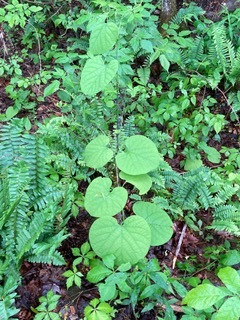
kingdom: Plantae
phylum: Tracheophyta
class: Magnoliopsida
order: Piperales
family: Aristolochiaceae
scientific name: Aristolochiaceae
